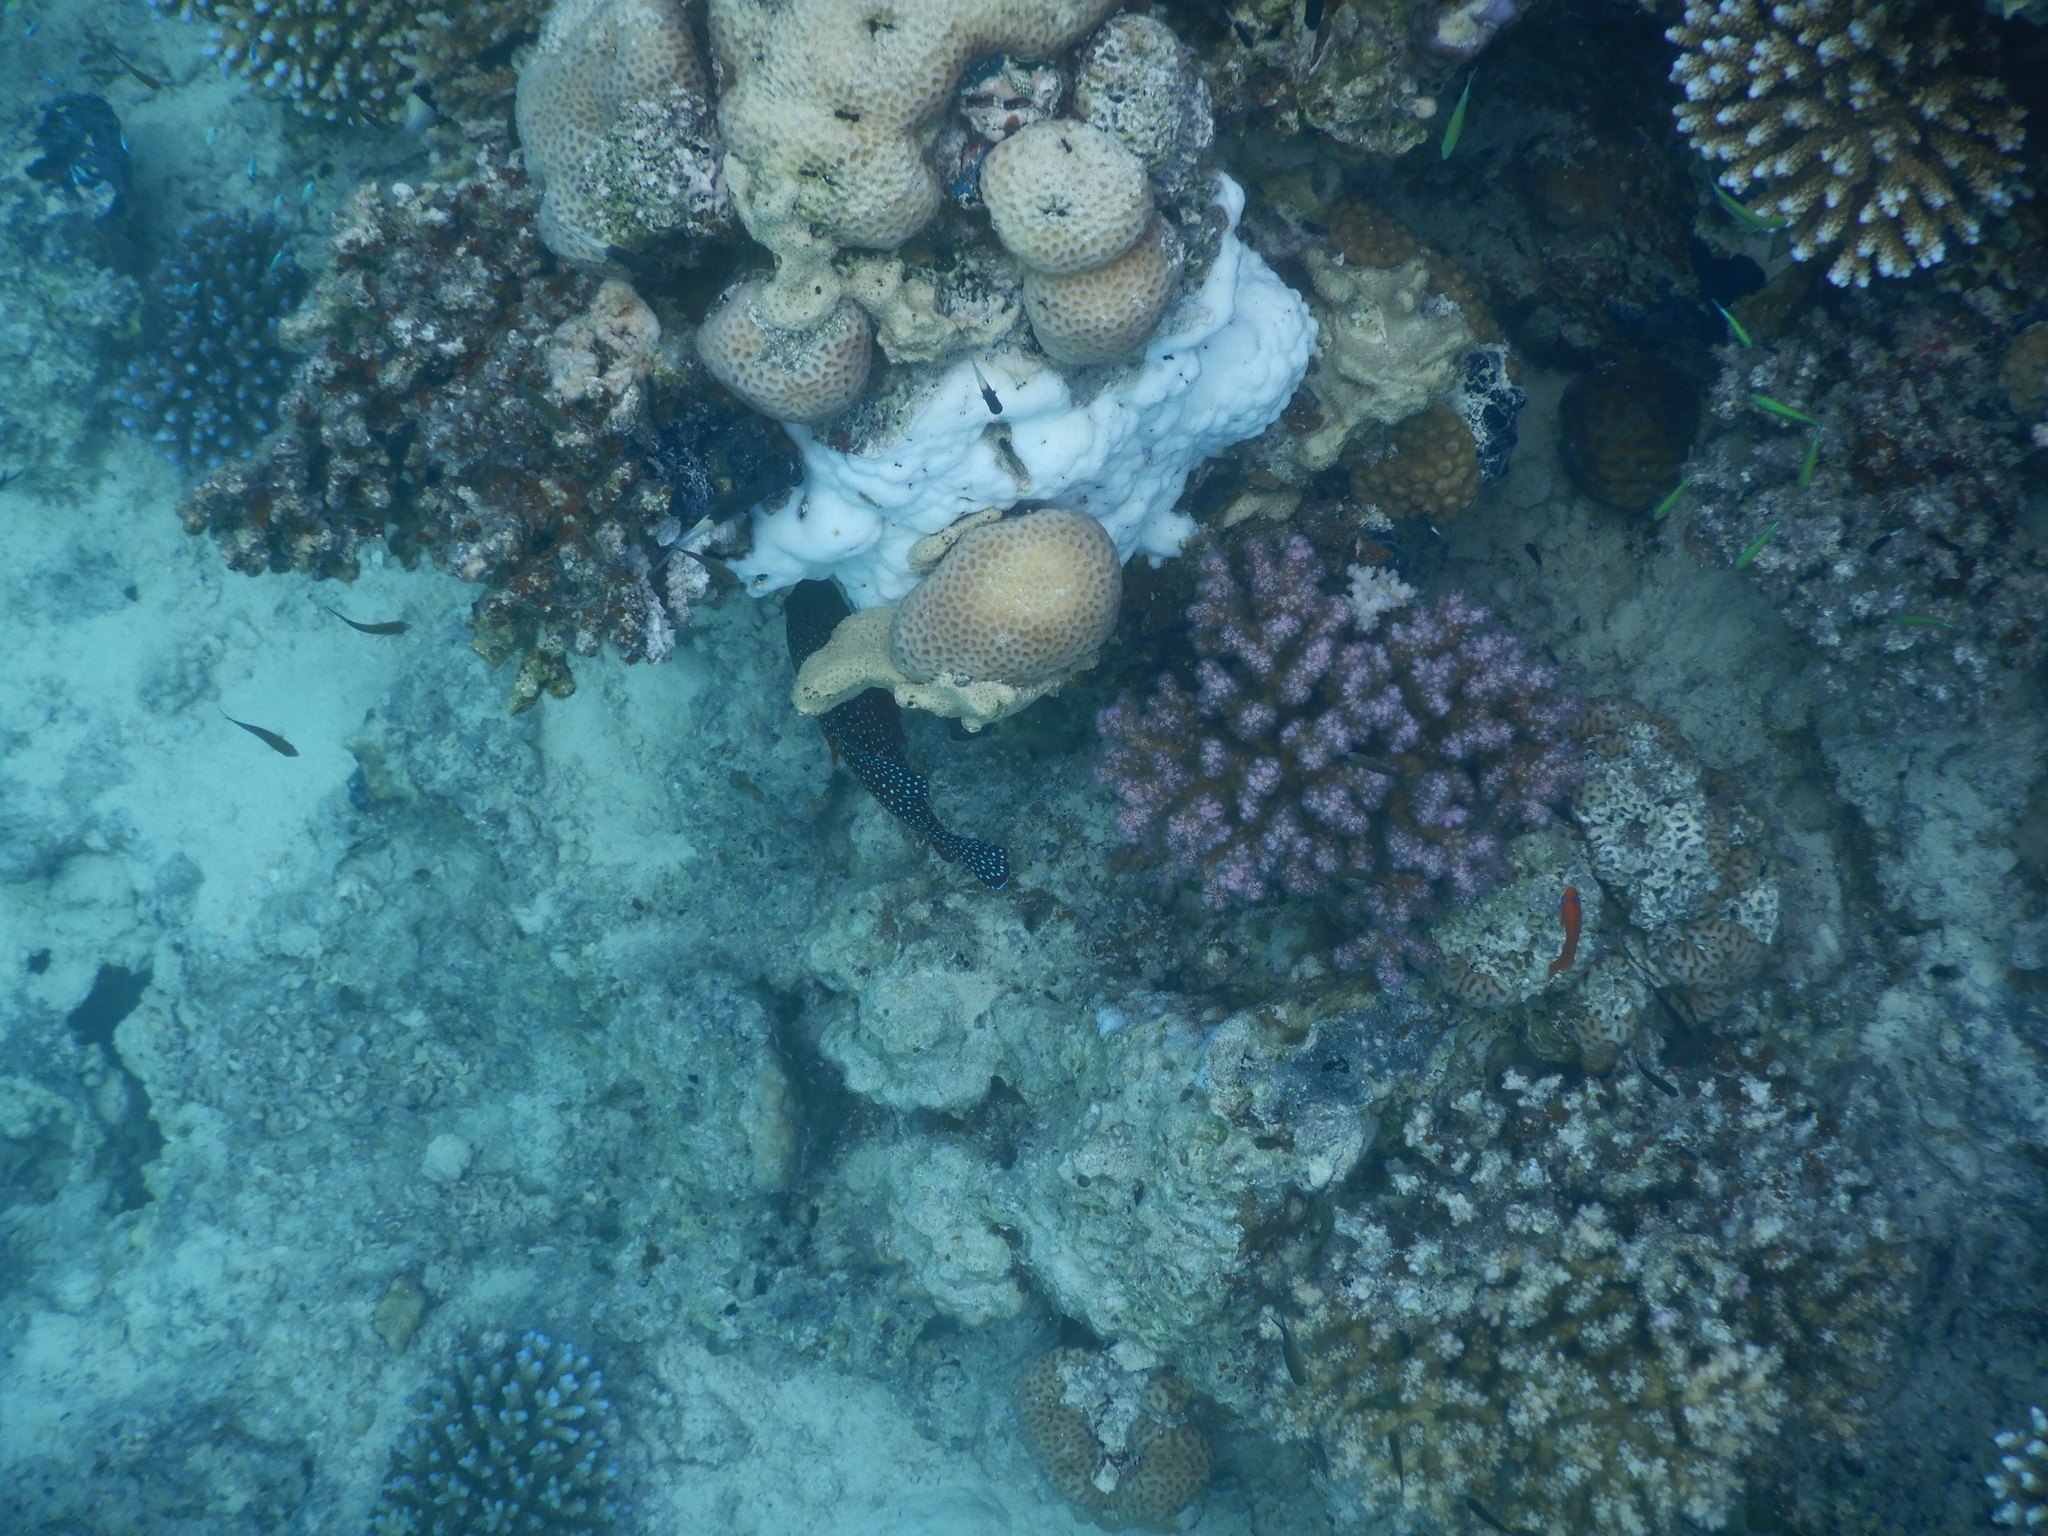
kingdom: Animalia
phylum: Chordata
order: Perciformes
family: Serranidae
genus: Cephalopholis
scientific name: Cephalopholis miniata
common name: Coral hind
